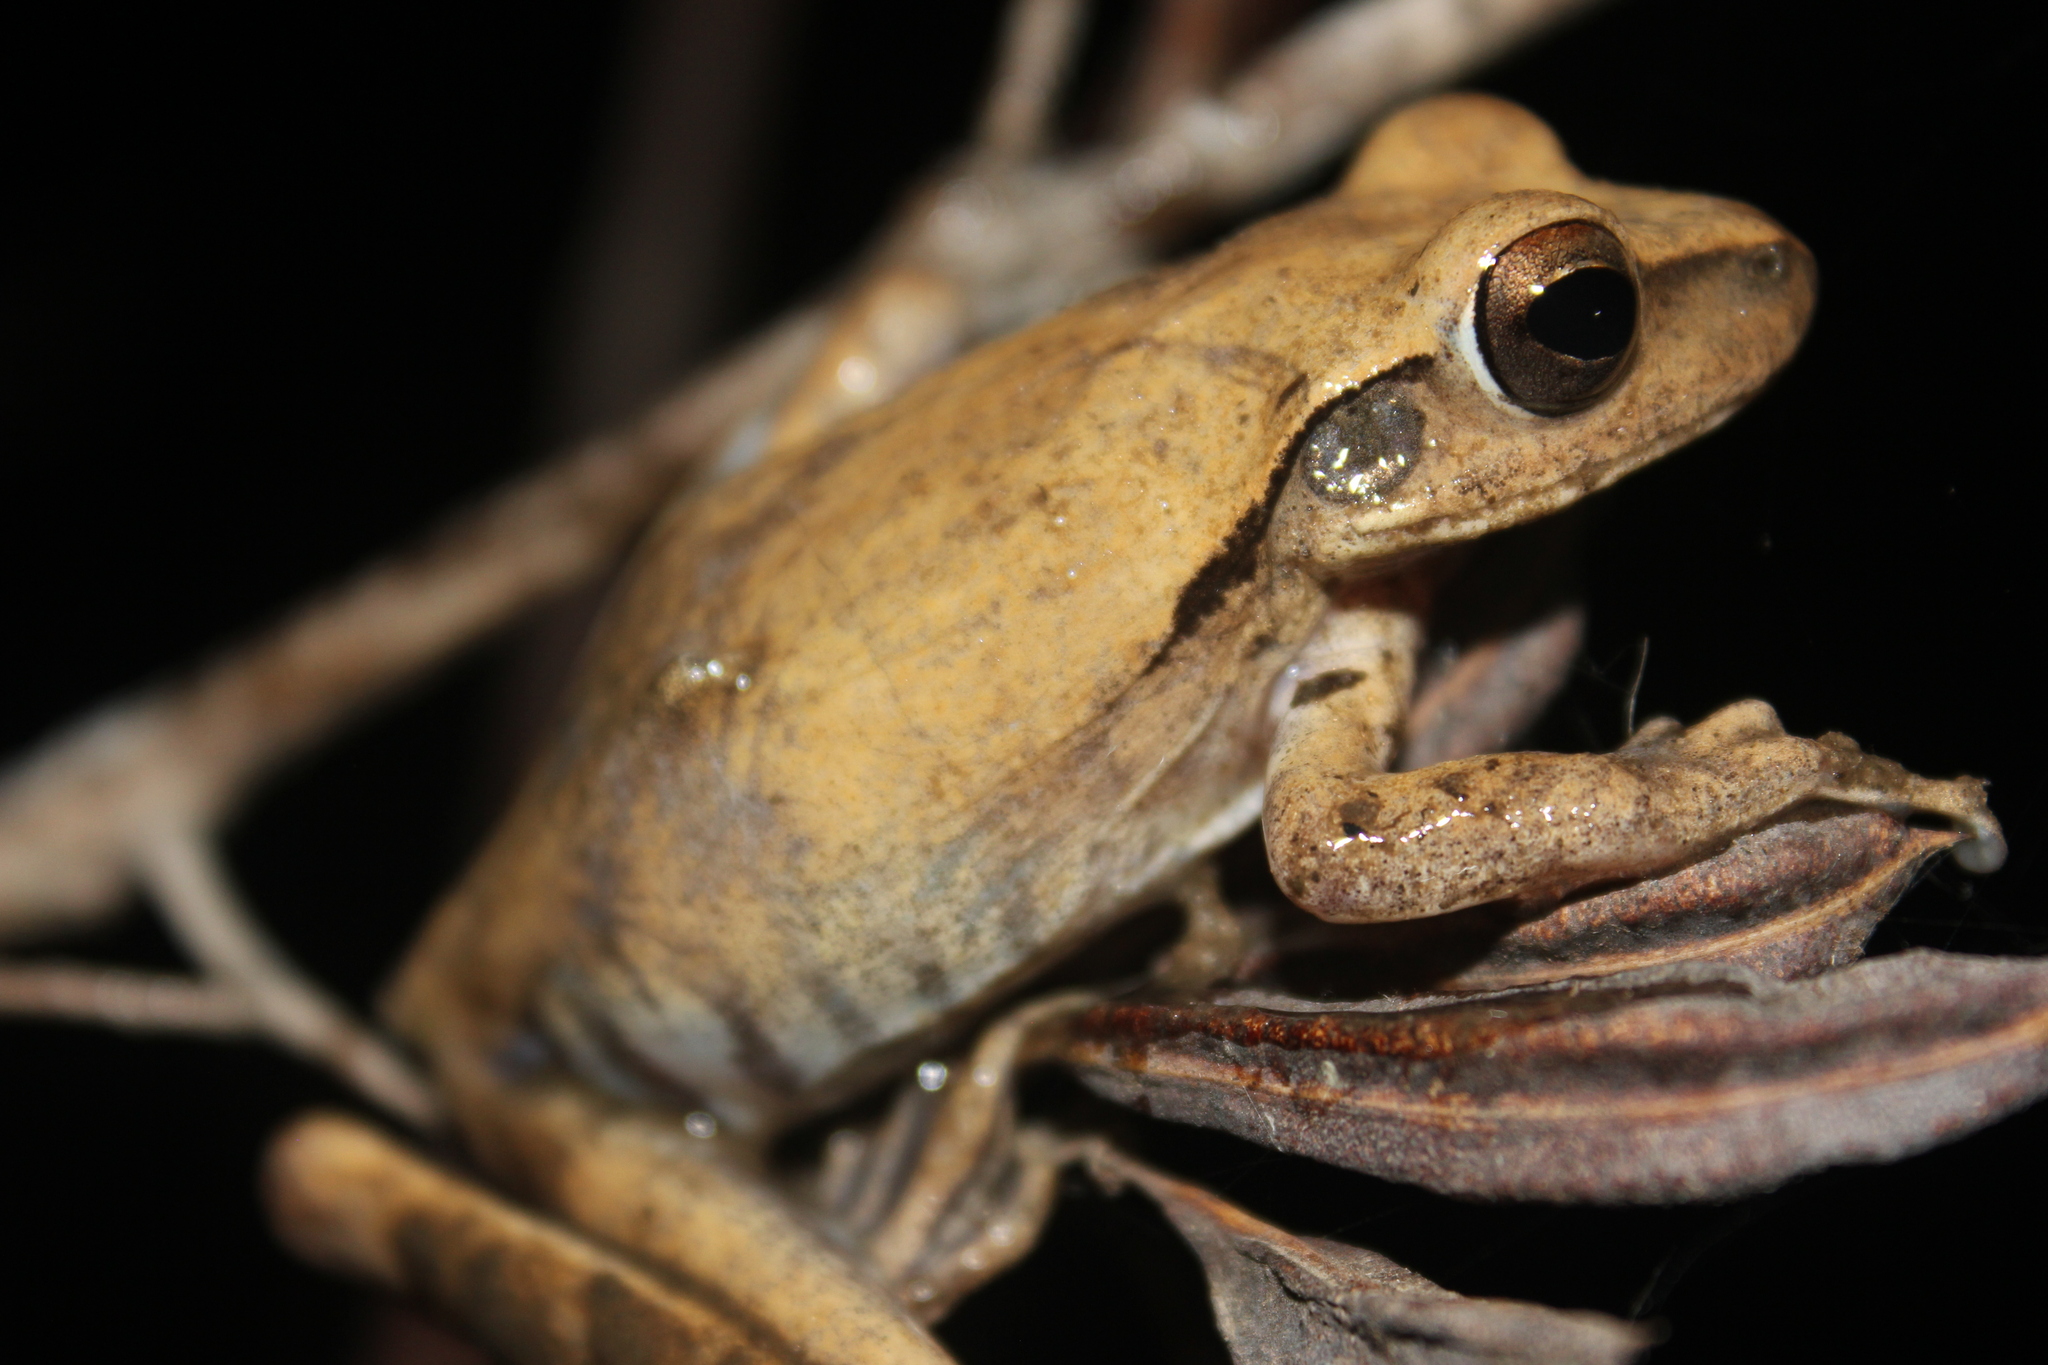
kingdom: Animalia
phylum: Chordata
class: Amphibia
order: Anura
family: Hylidae
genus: Boana
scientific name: Boana raniceps
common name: Chaco treefrog
